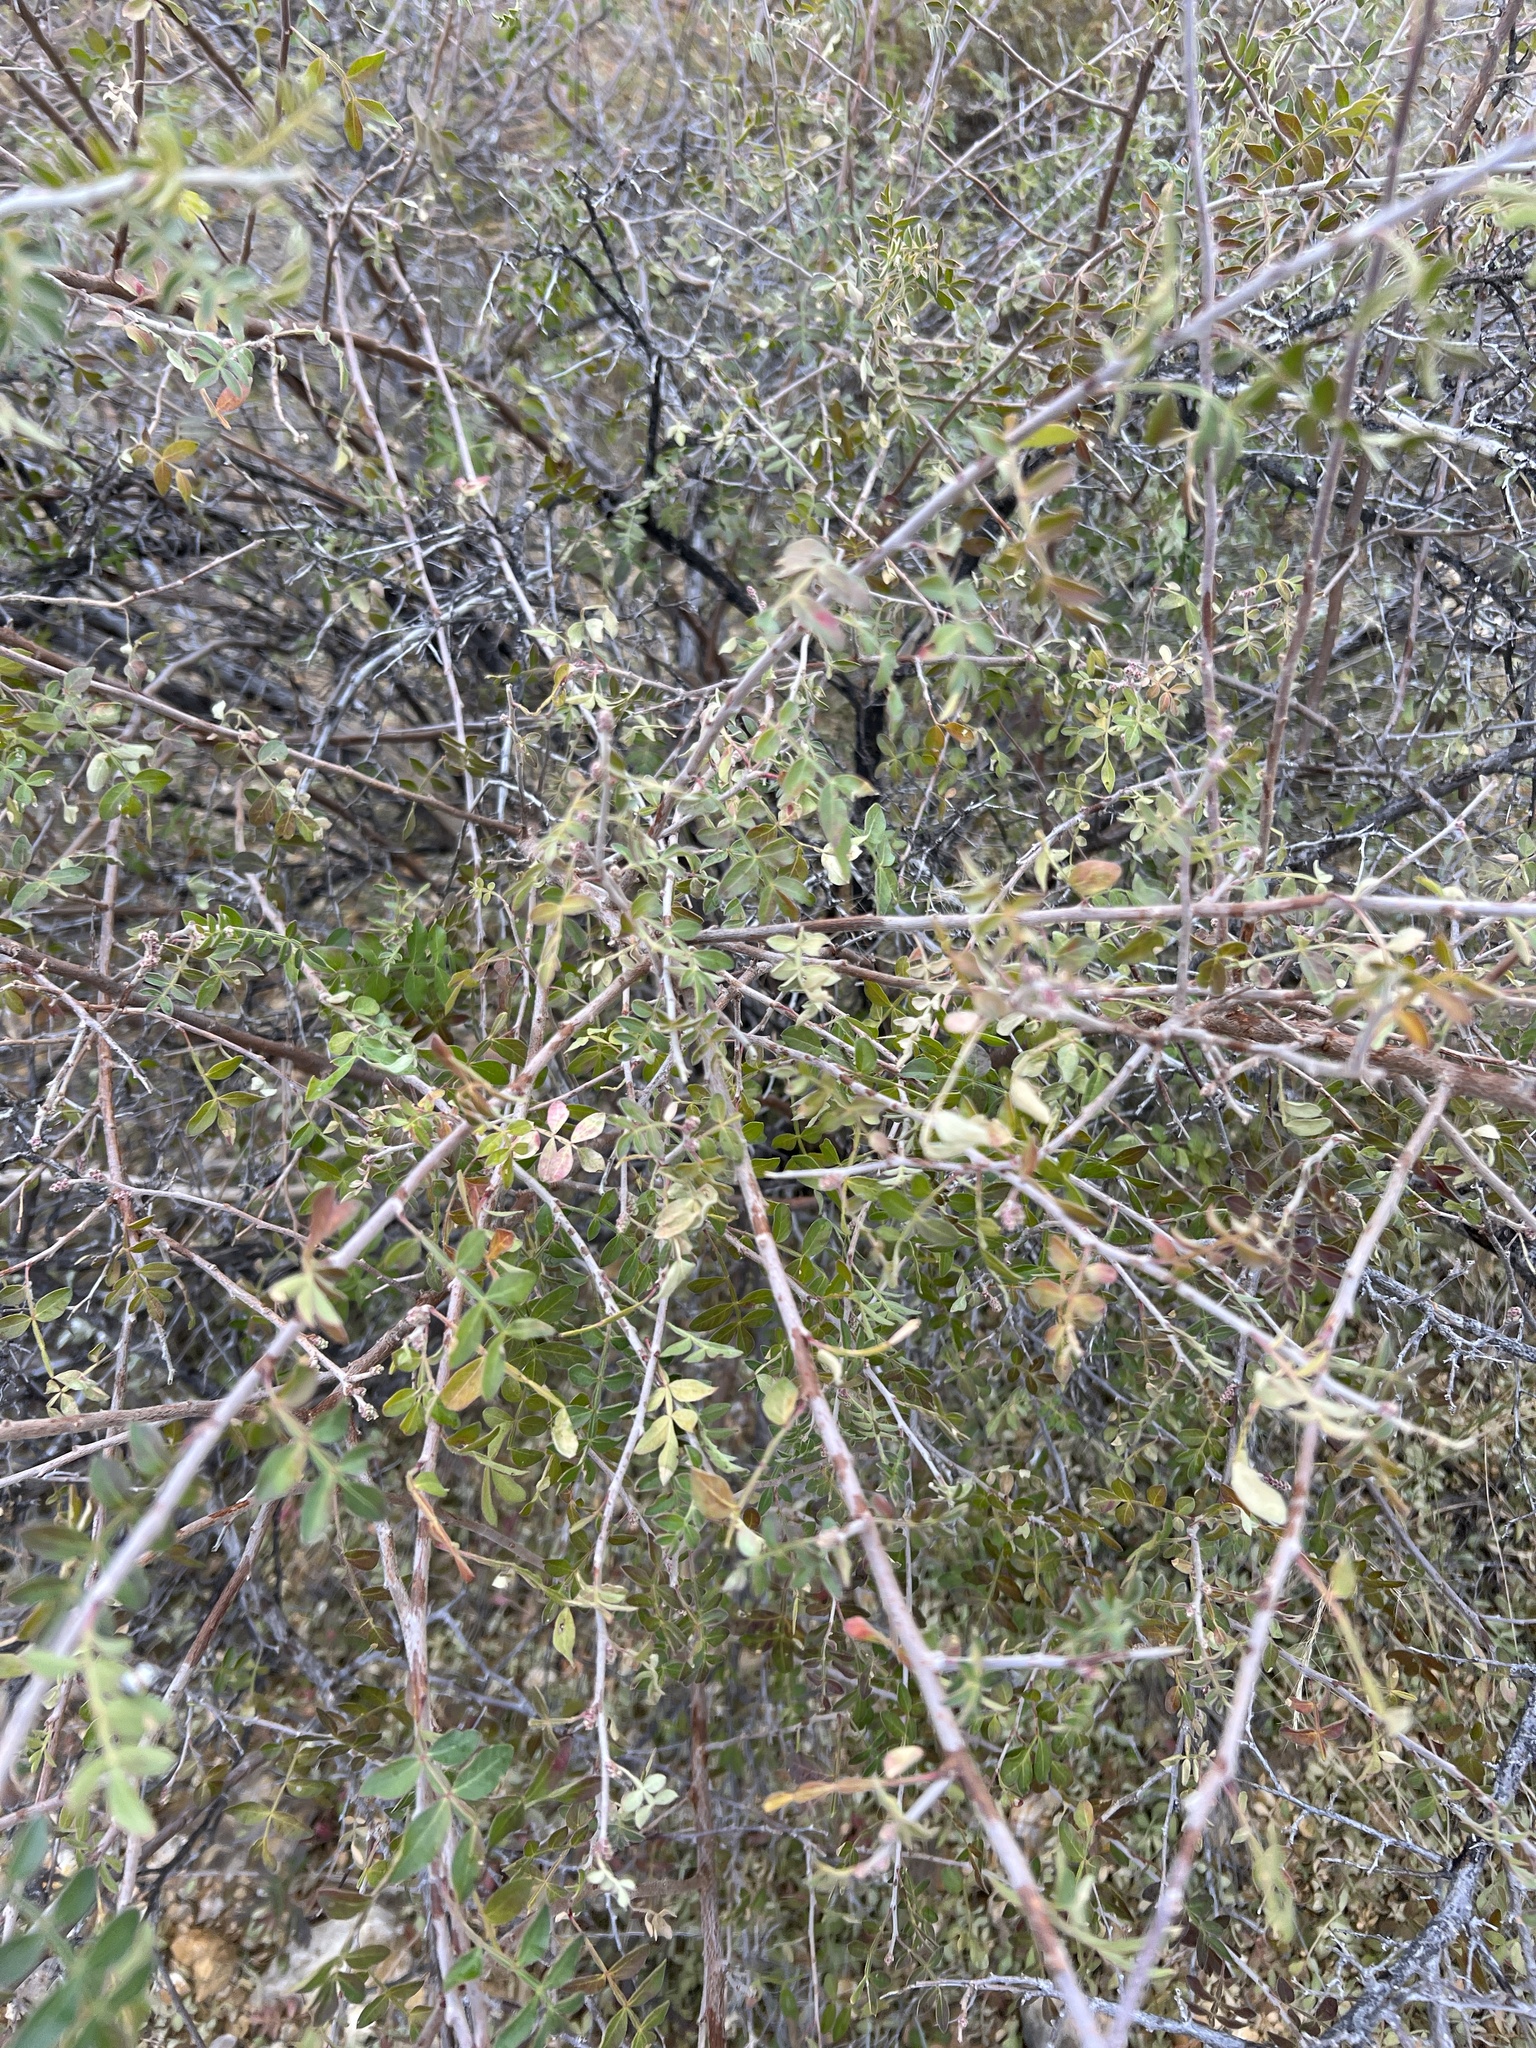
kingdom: Plantae
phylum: Tracheophyta
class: Magnoliopsida
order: Sapindales
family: Anacardiaceae
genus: Rhus
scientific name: Rhus microphylla
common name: Desert sumac
